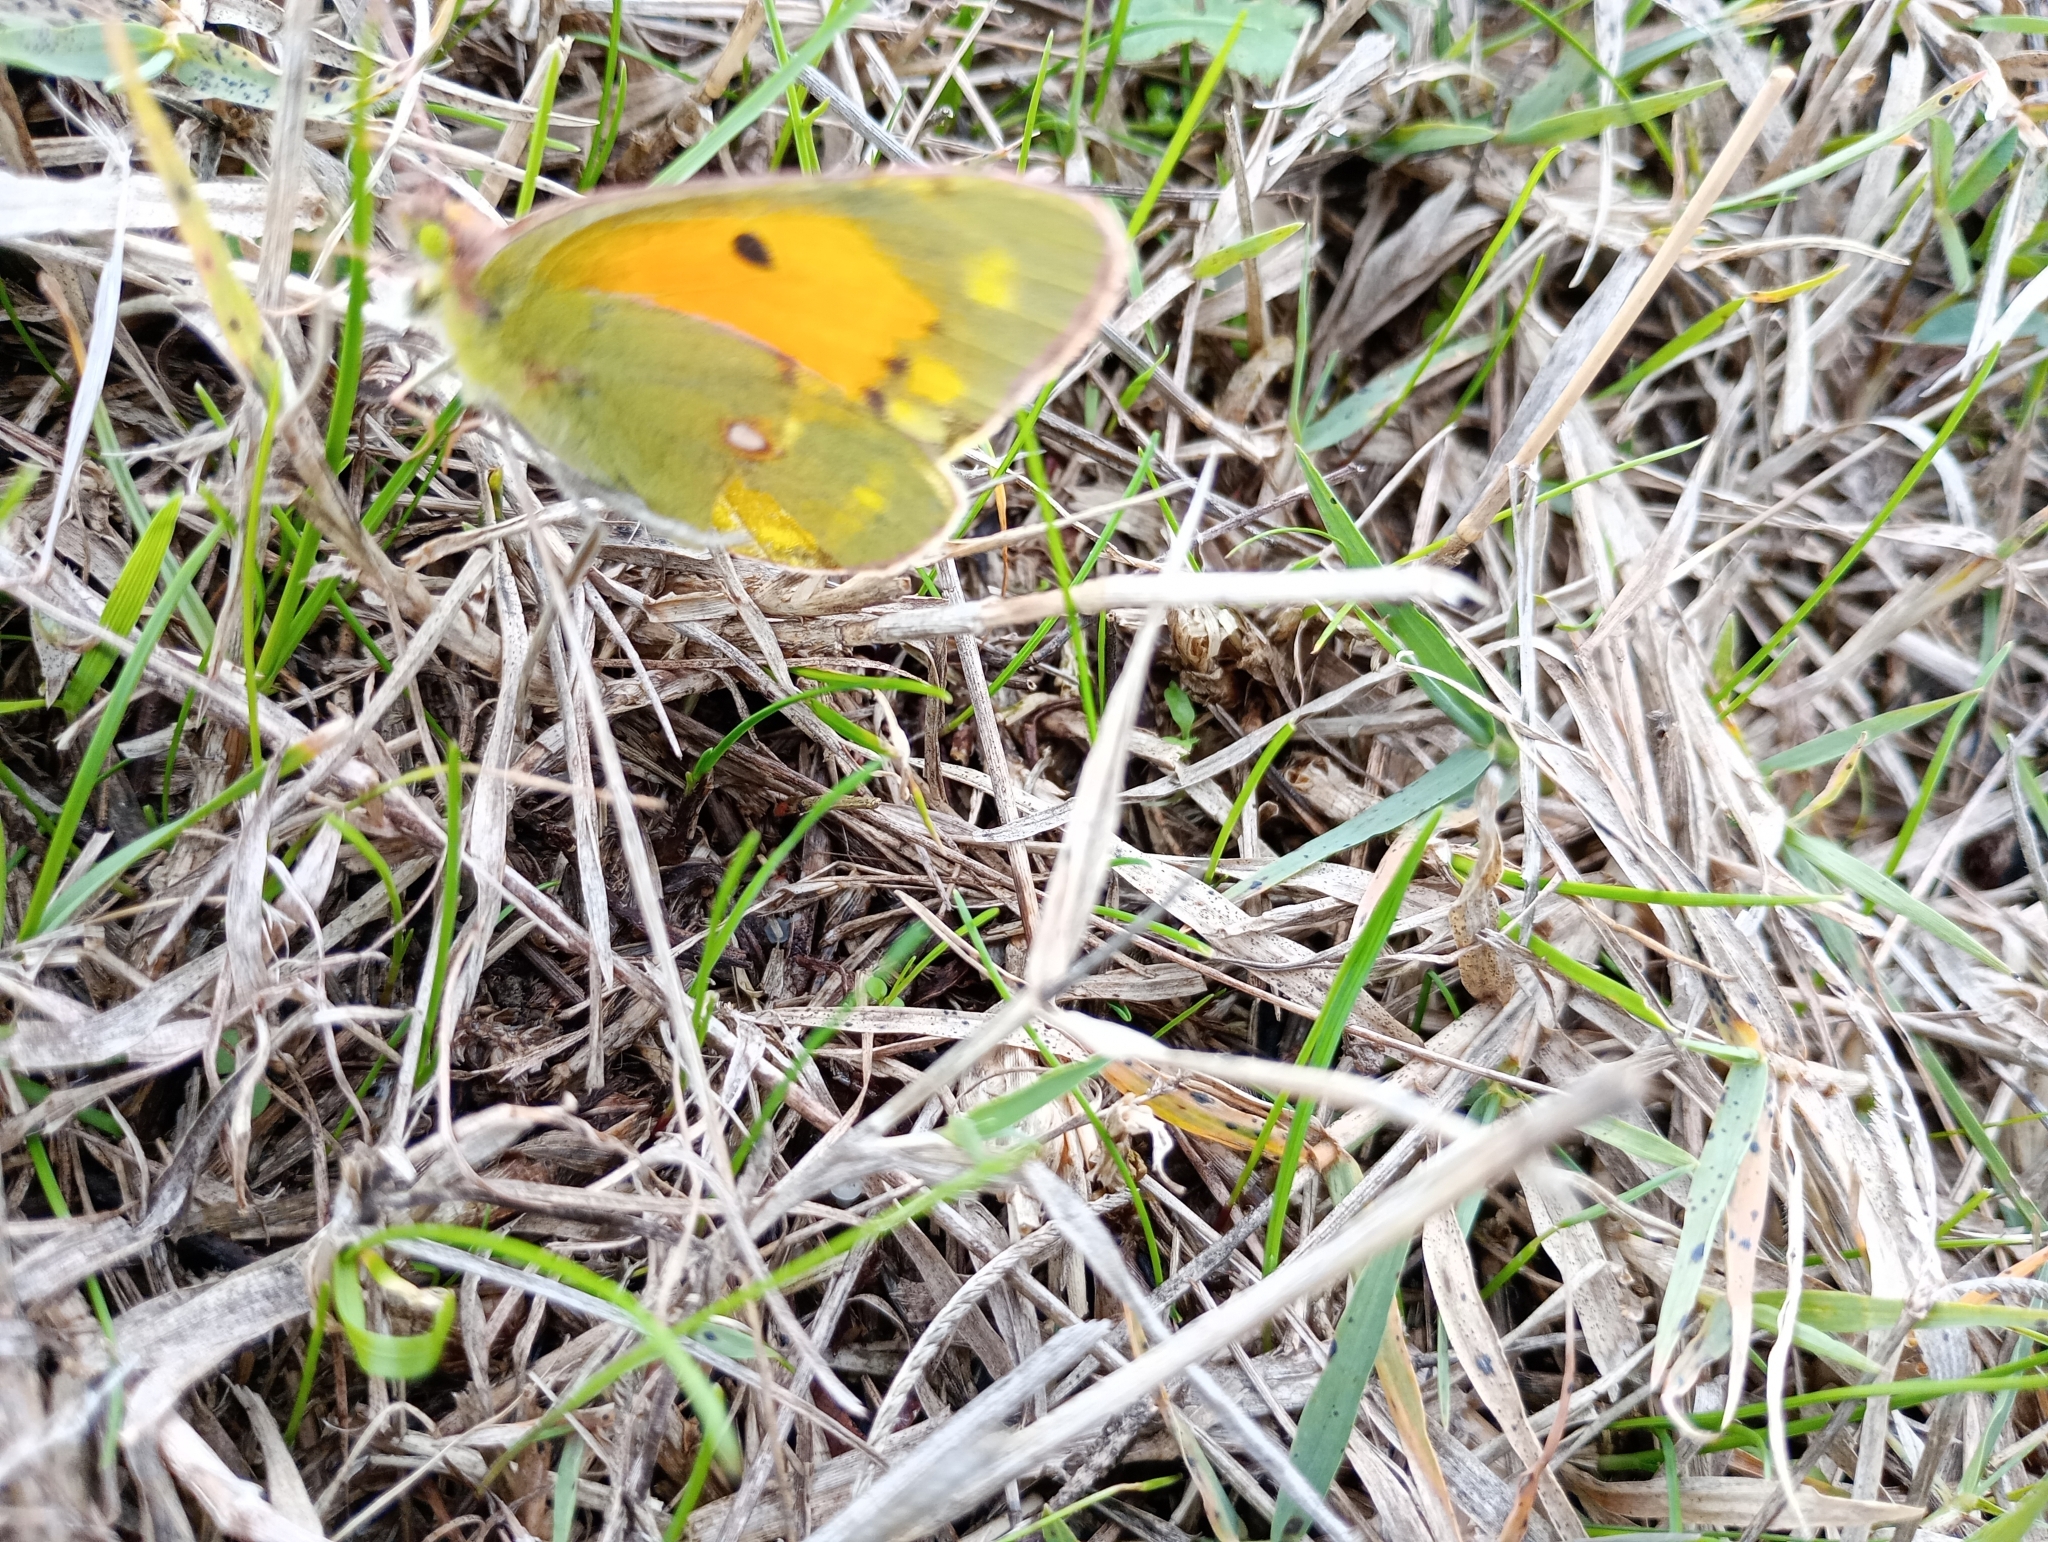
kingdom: Animalia
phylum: Arthropoda
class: Insecta
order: Lepidoptera
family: Pieridae
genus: Colias
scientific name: Colias croceus
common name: Clouded yellow
